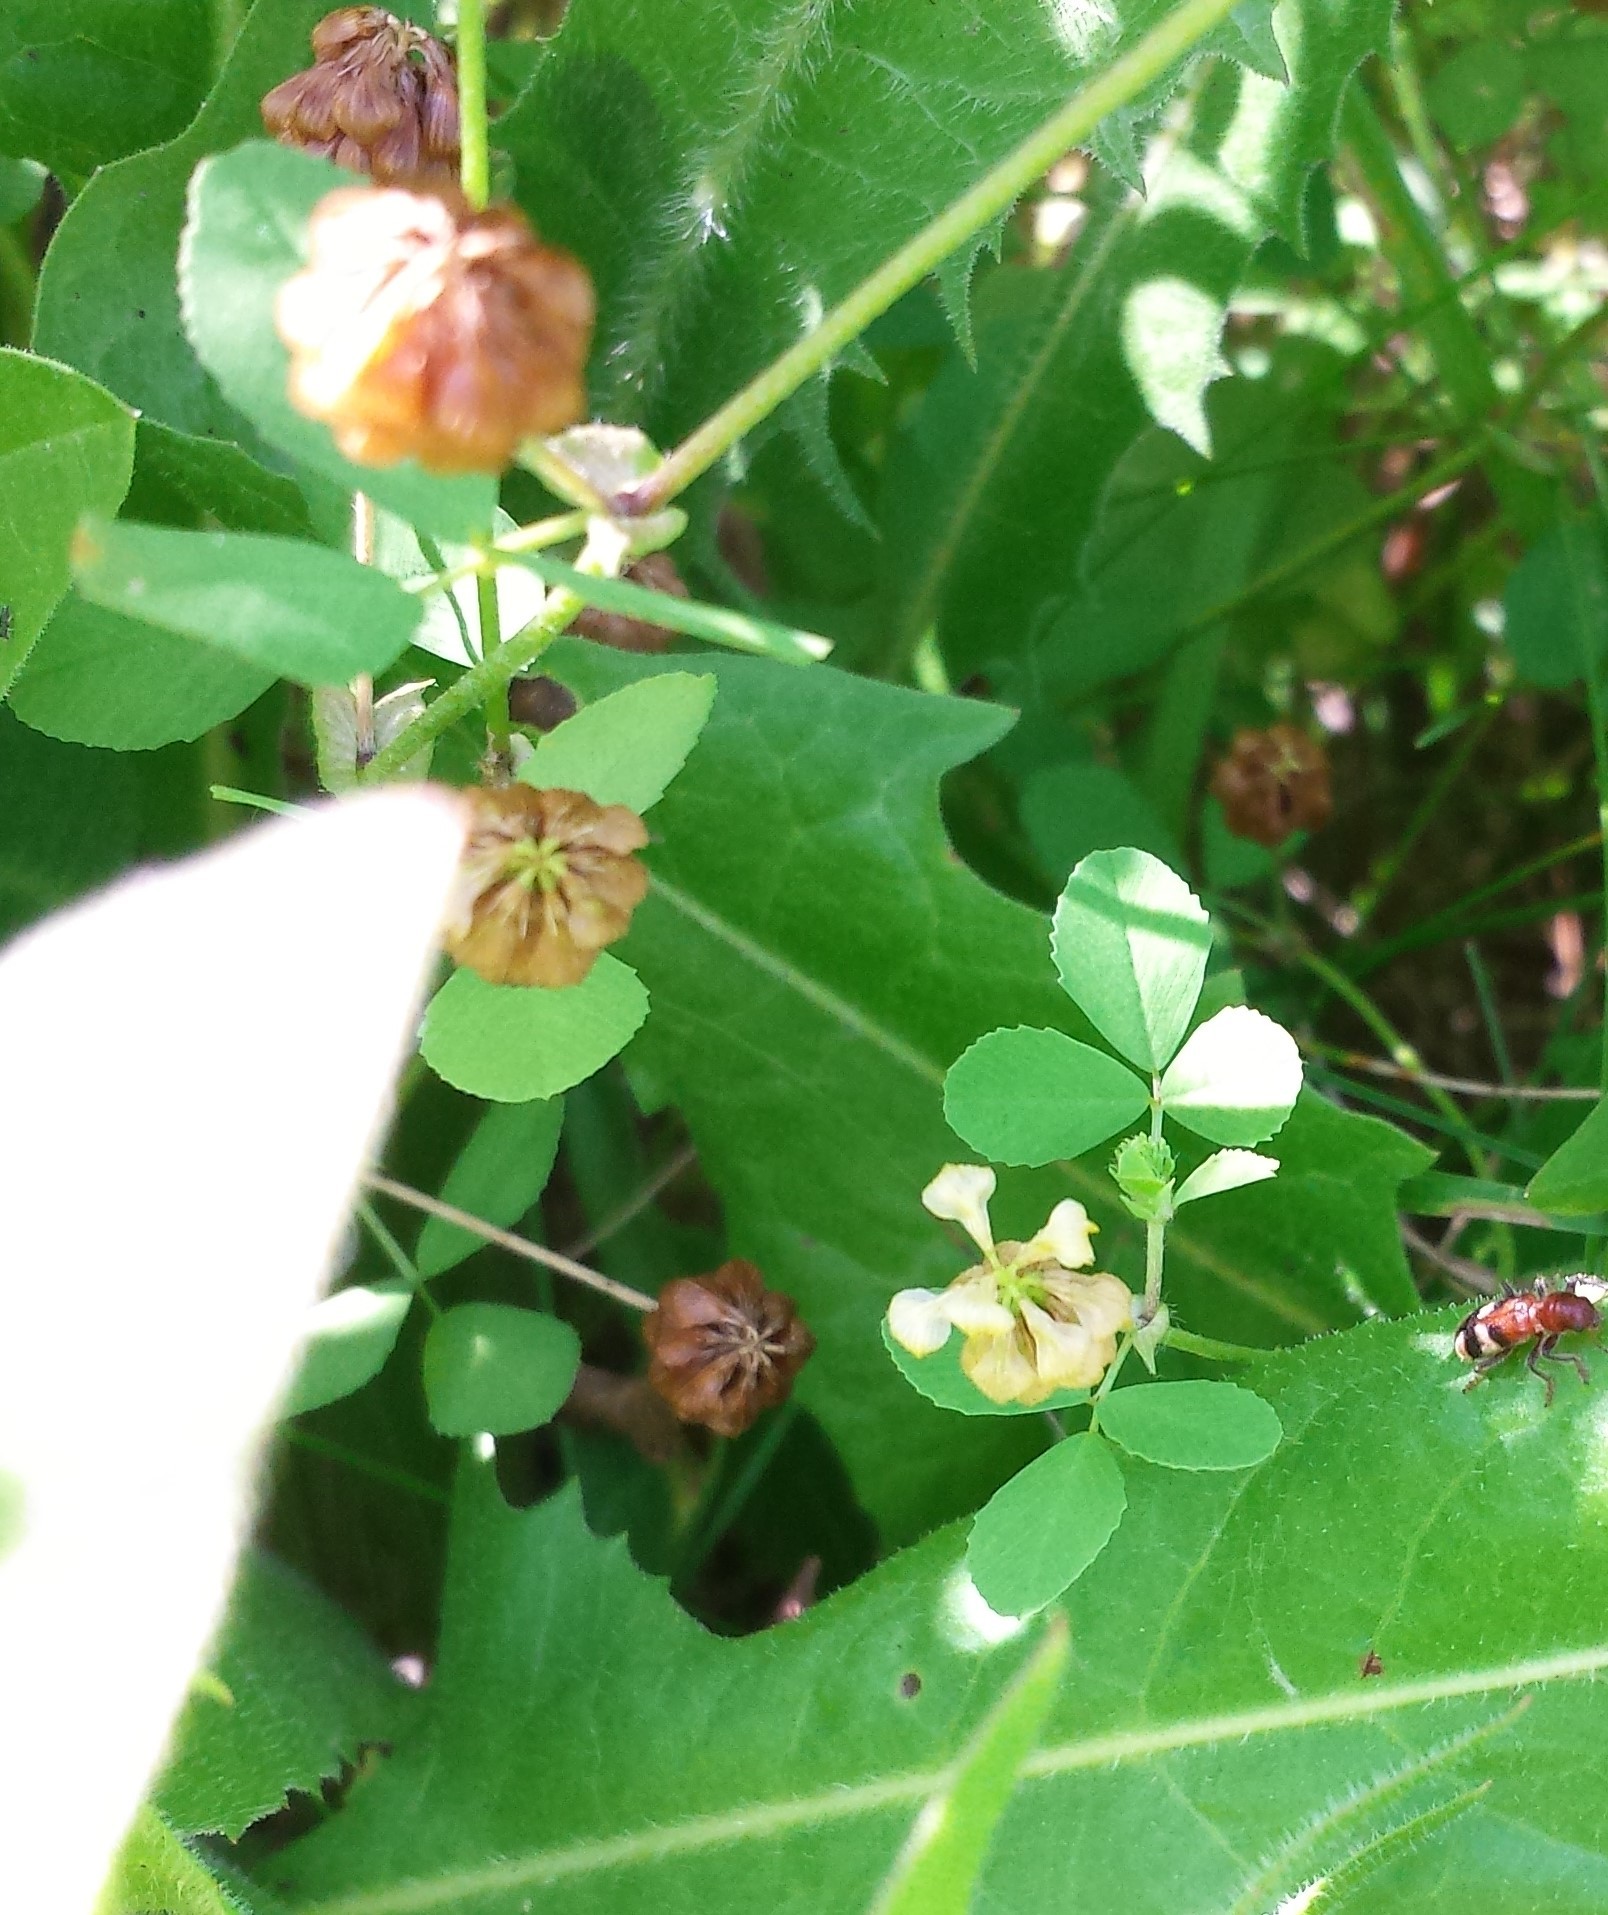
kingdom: Plantae
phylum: Tracheophyta
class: Magnoliopsida
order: Fabales
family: Fabaceae
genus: Trifolium
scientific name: Trifolium campestre
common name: Field clover
